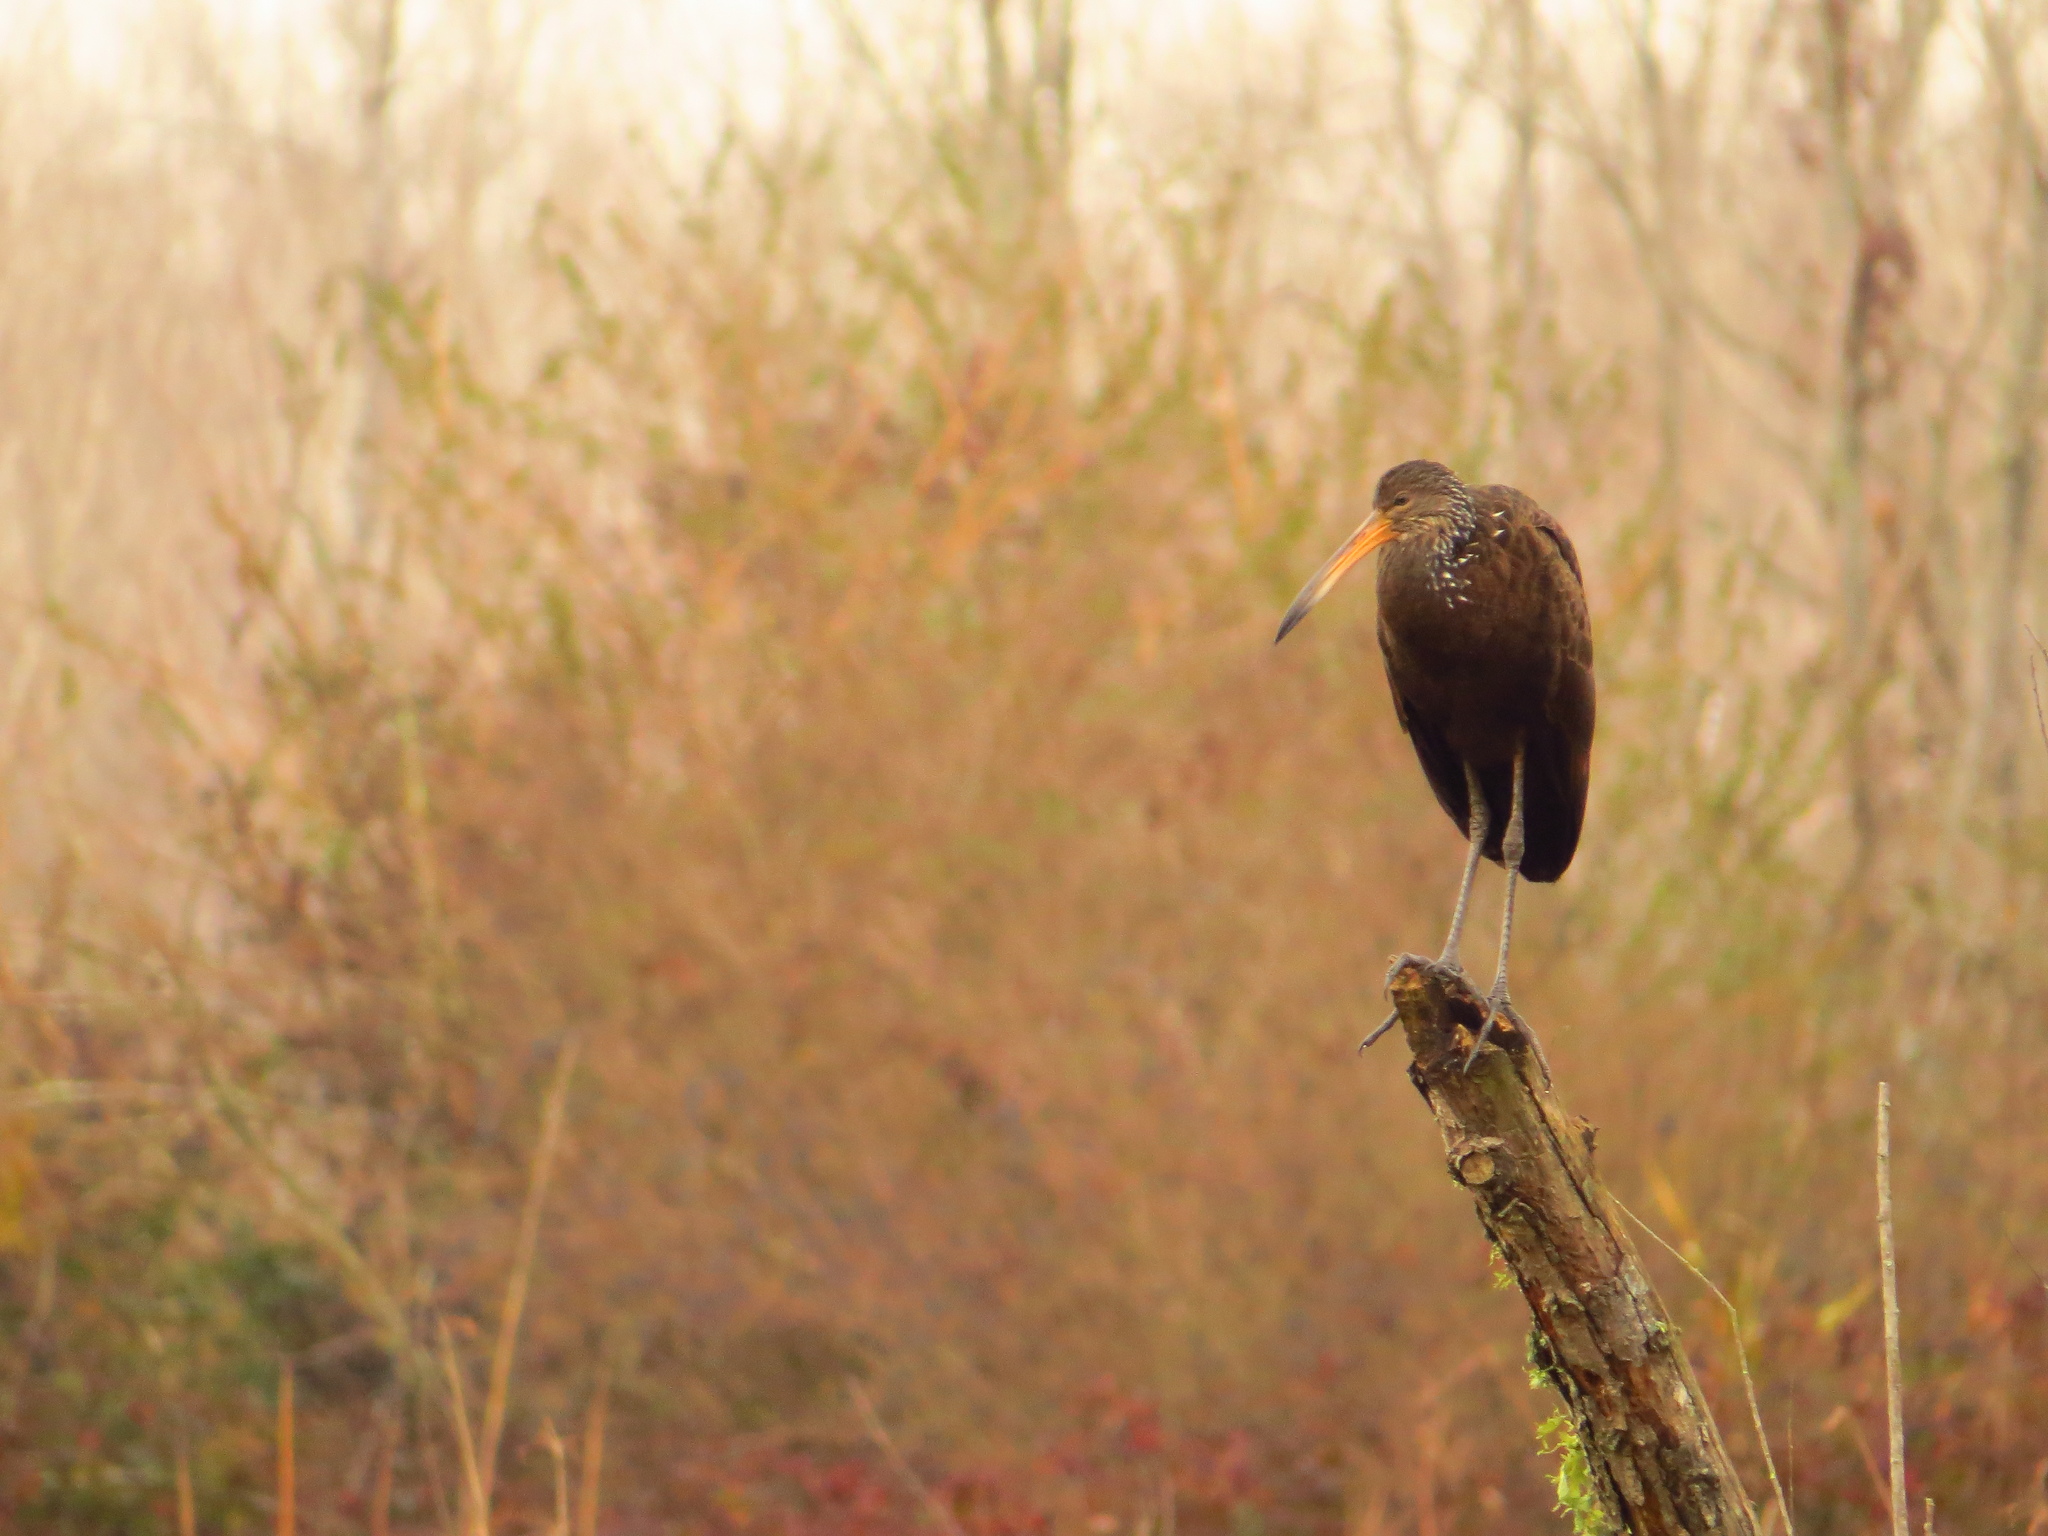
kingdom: Animalia
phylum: Chordata
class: Aves
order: Gruiformes
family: Aramidae
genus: Aramus
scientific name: Aramus guarauna
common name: Limpkin
